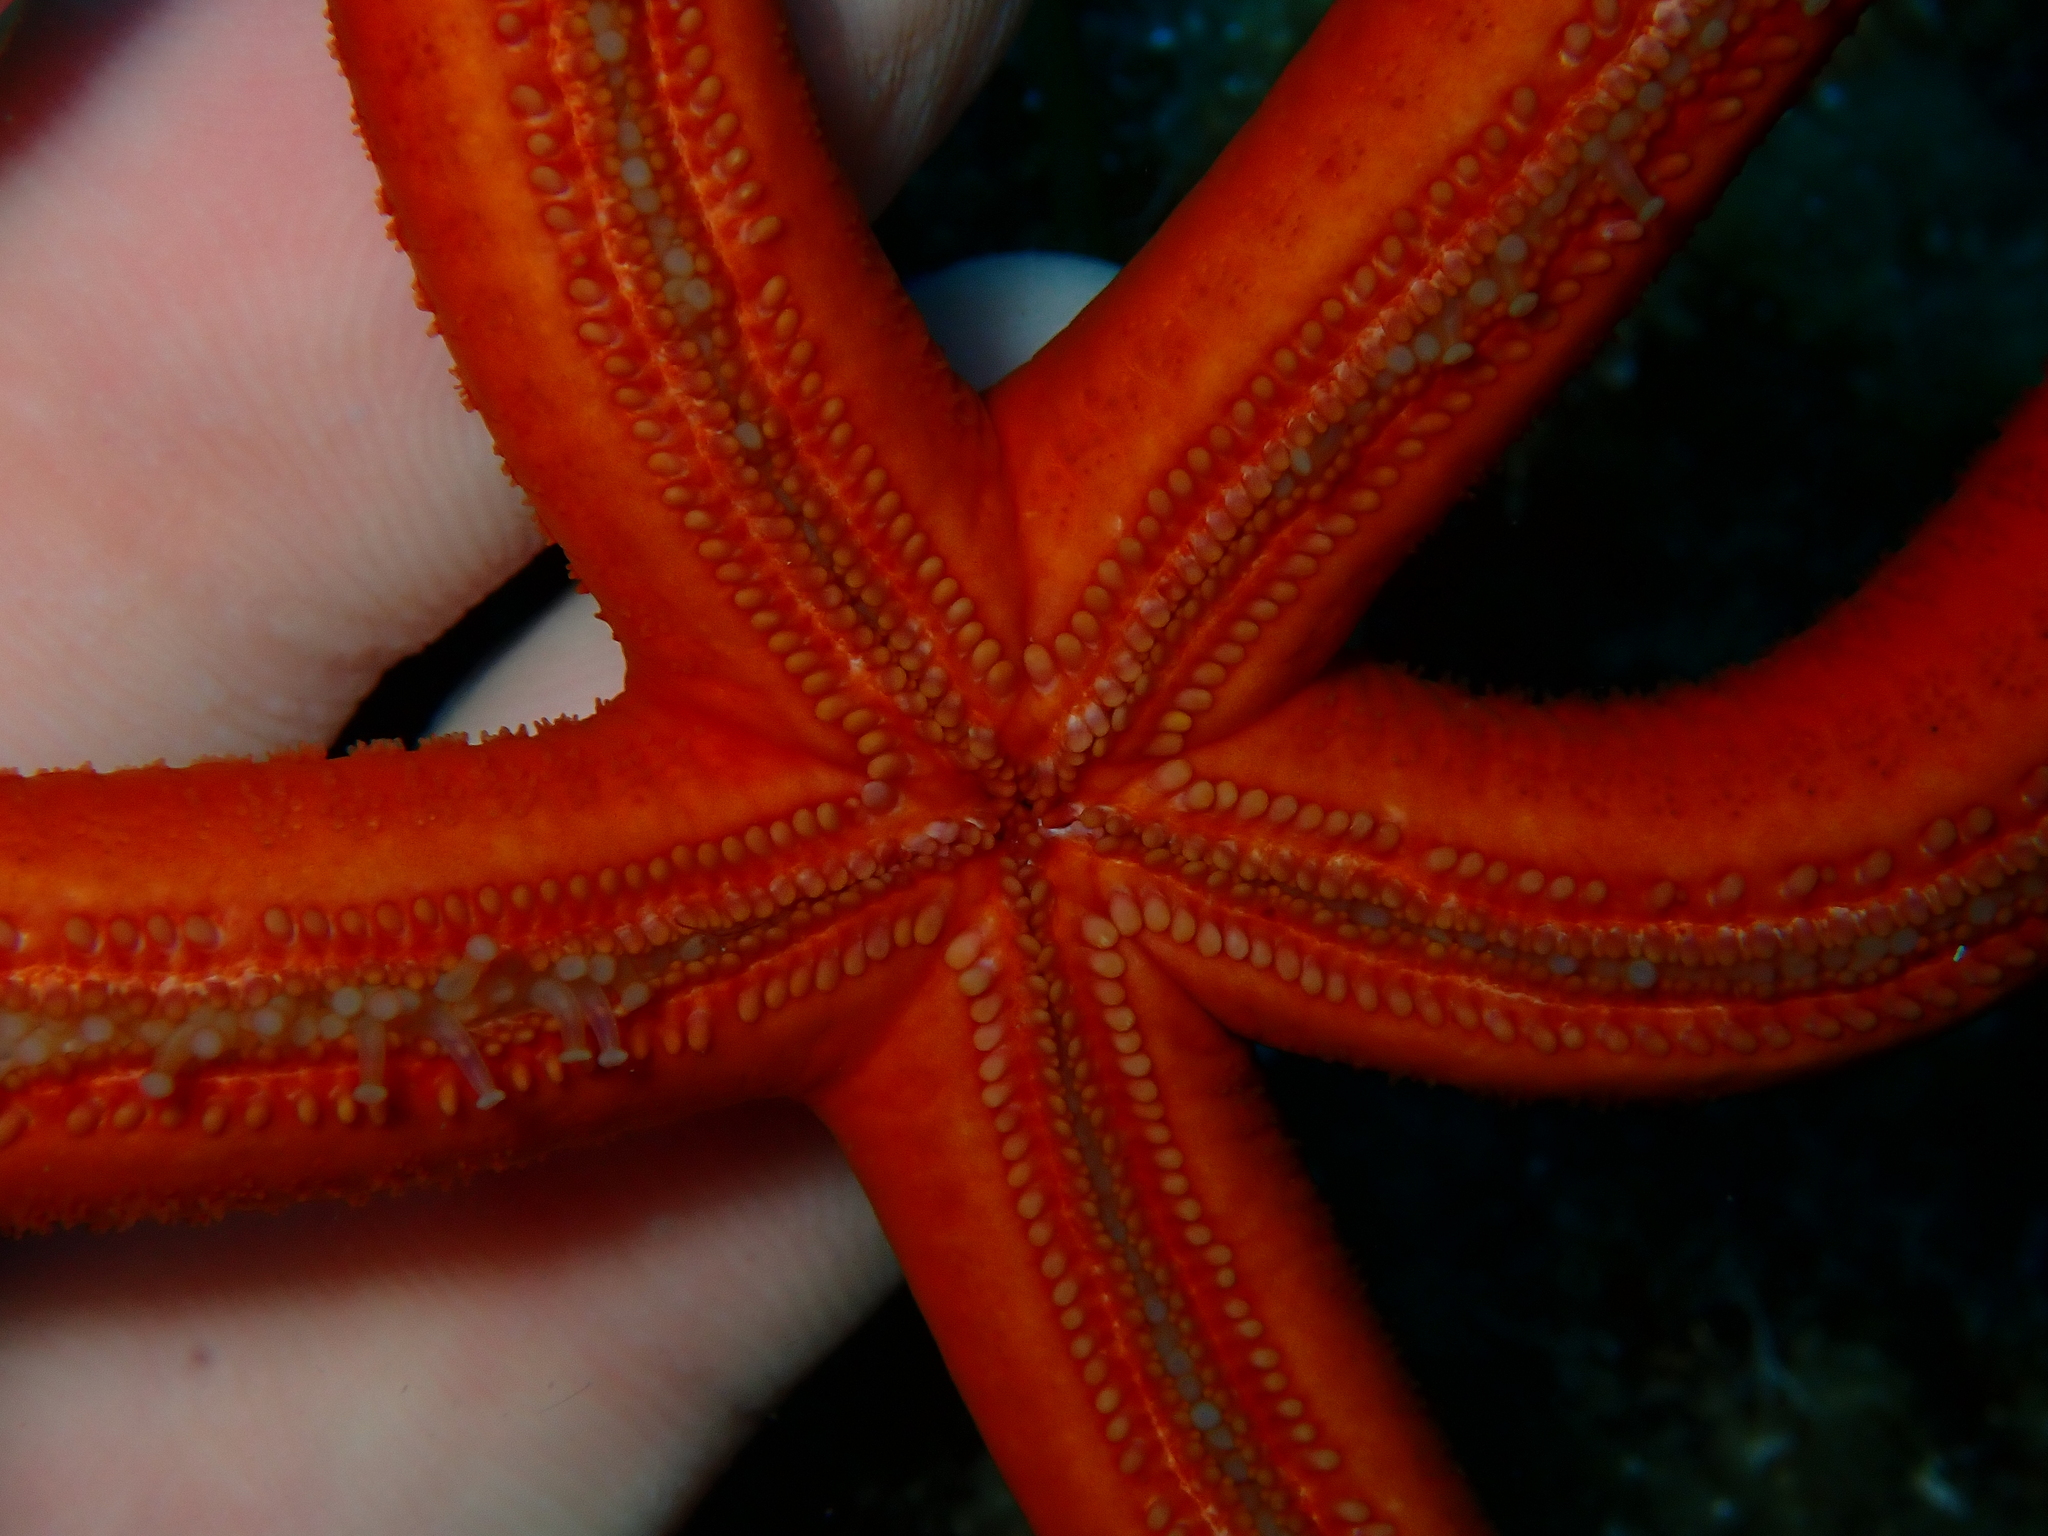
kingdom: Animalia
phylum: Echinodermata
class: Asteroidea
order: Valvatida
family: Ophidiasteridae
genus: Ophidiaster
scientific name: Ophidiaster ophidianus
